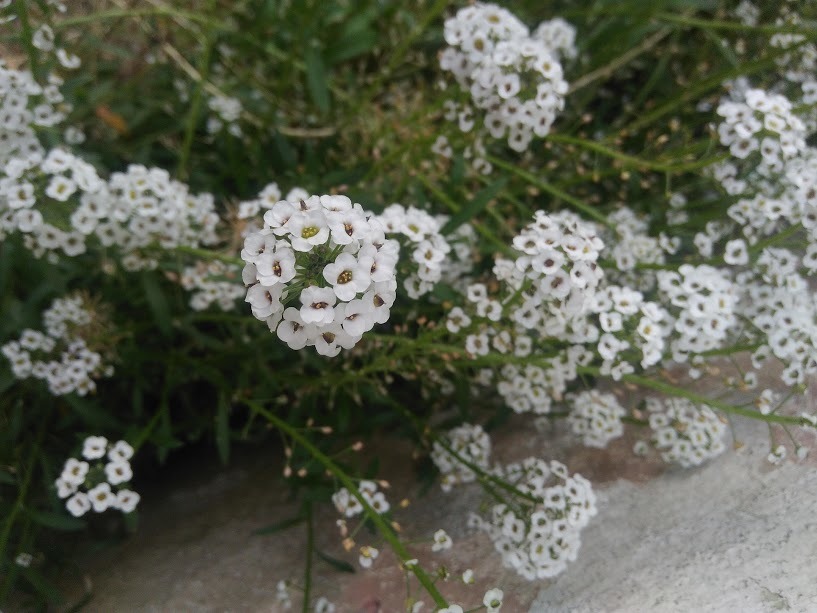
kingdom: Plantae
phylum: Tracheophyta
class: Magnoliopsida
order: Brassicales
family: Brassicaceae
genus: Lobularia
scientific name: Lobularia maritima
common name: Sweet alison
